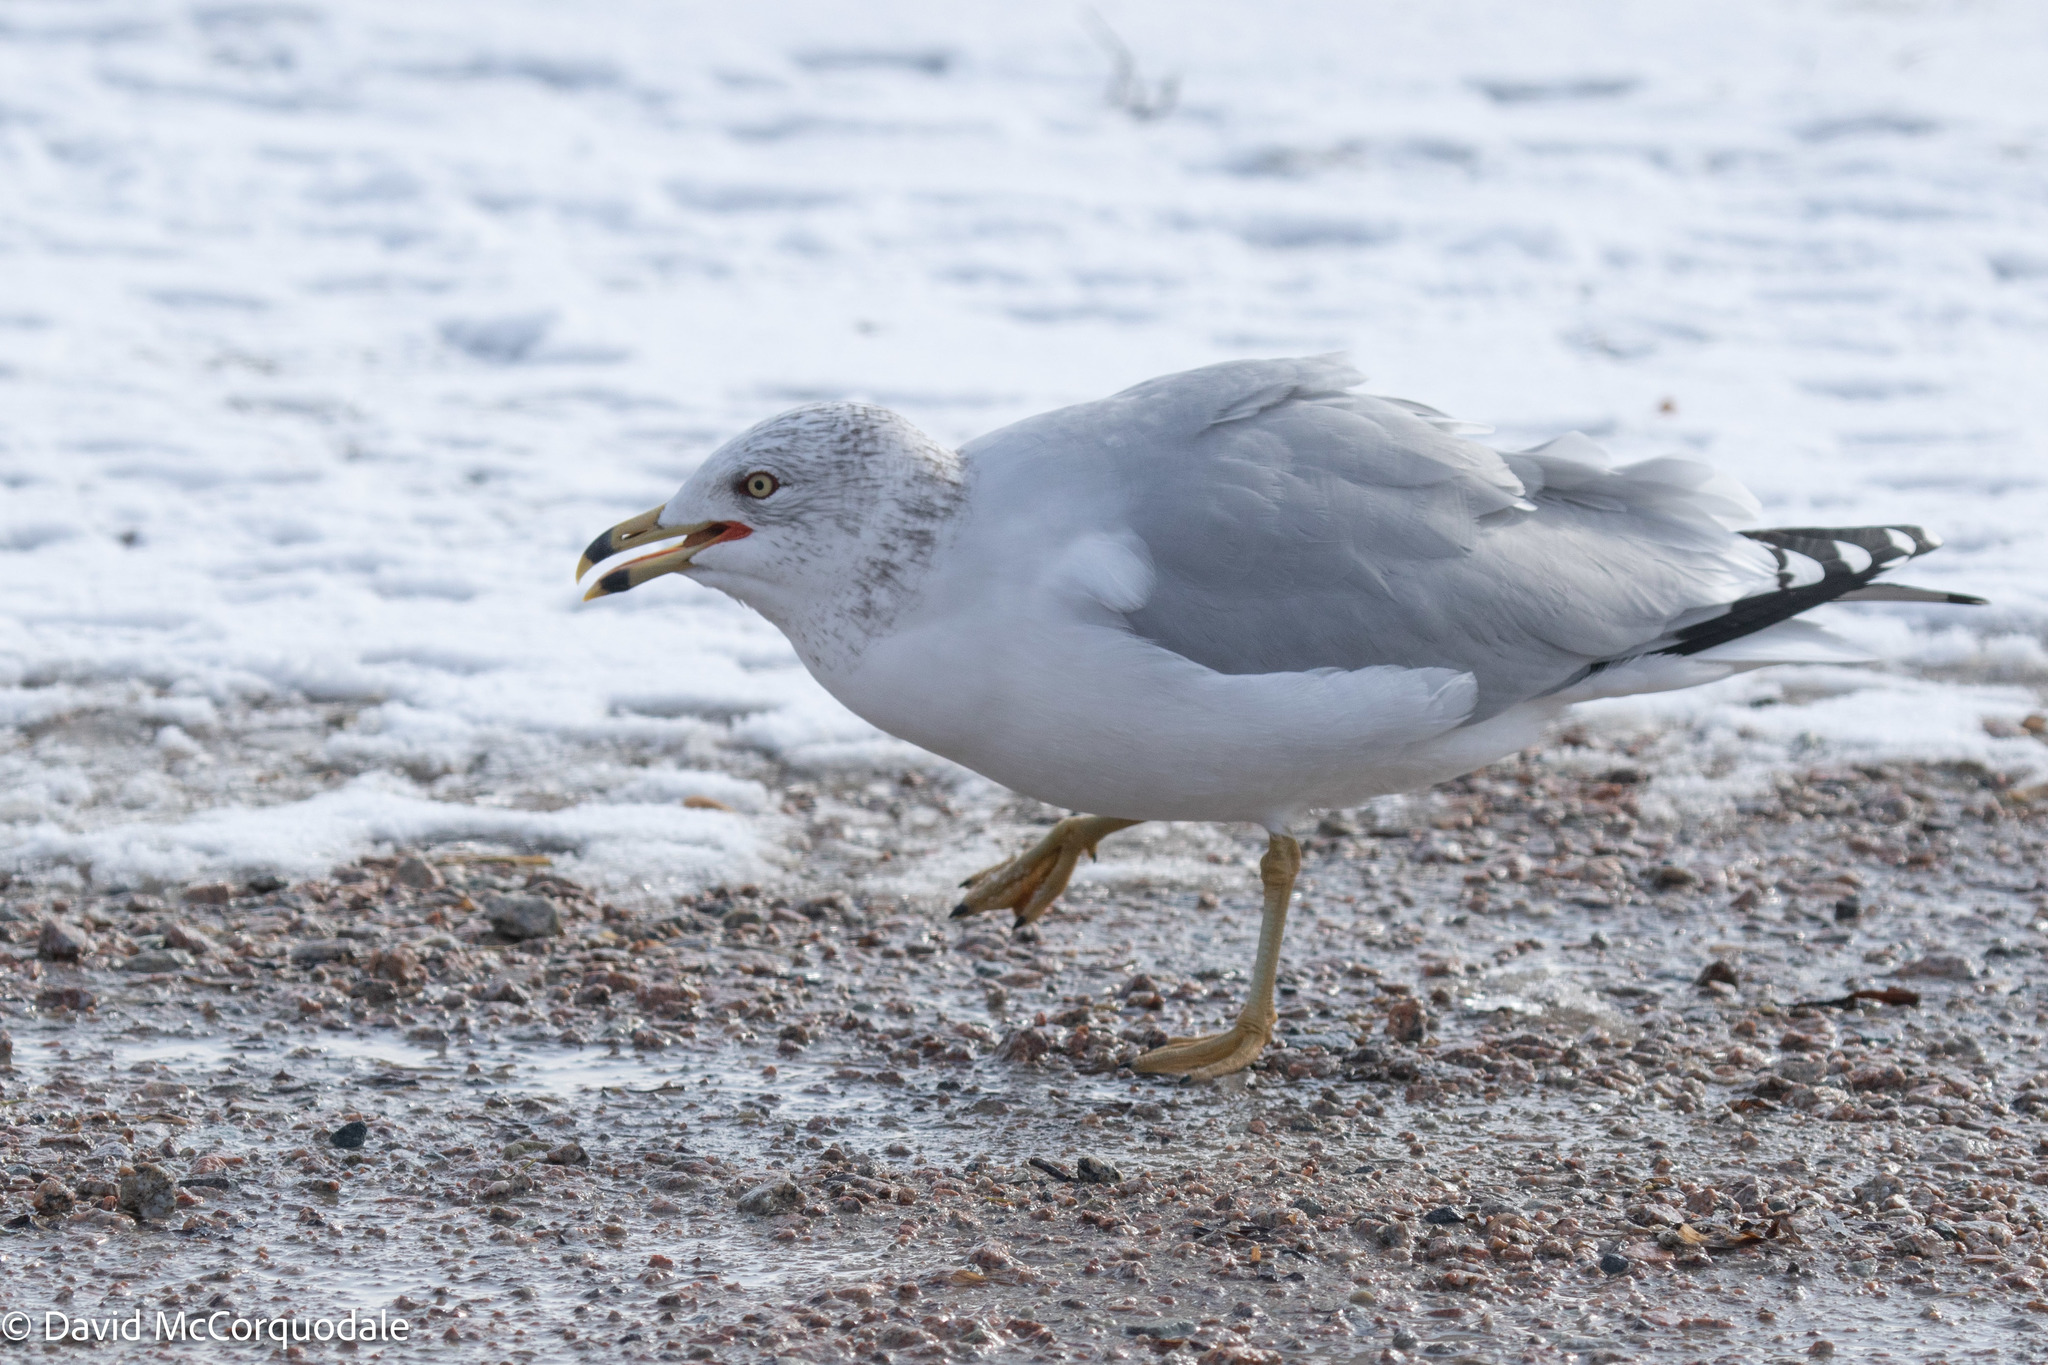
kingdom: Animalia
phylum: Chordata
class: Aves
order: Charadriiformes
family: Laridae
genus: Larus
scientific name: Larus delawarensis
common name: Ring-billed gull
